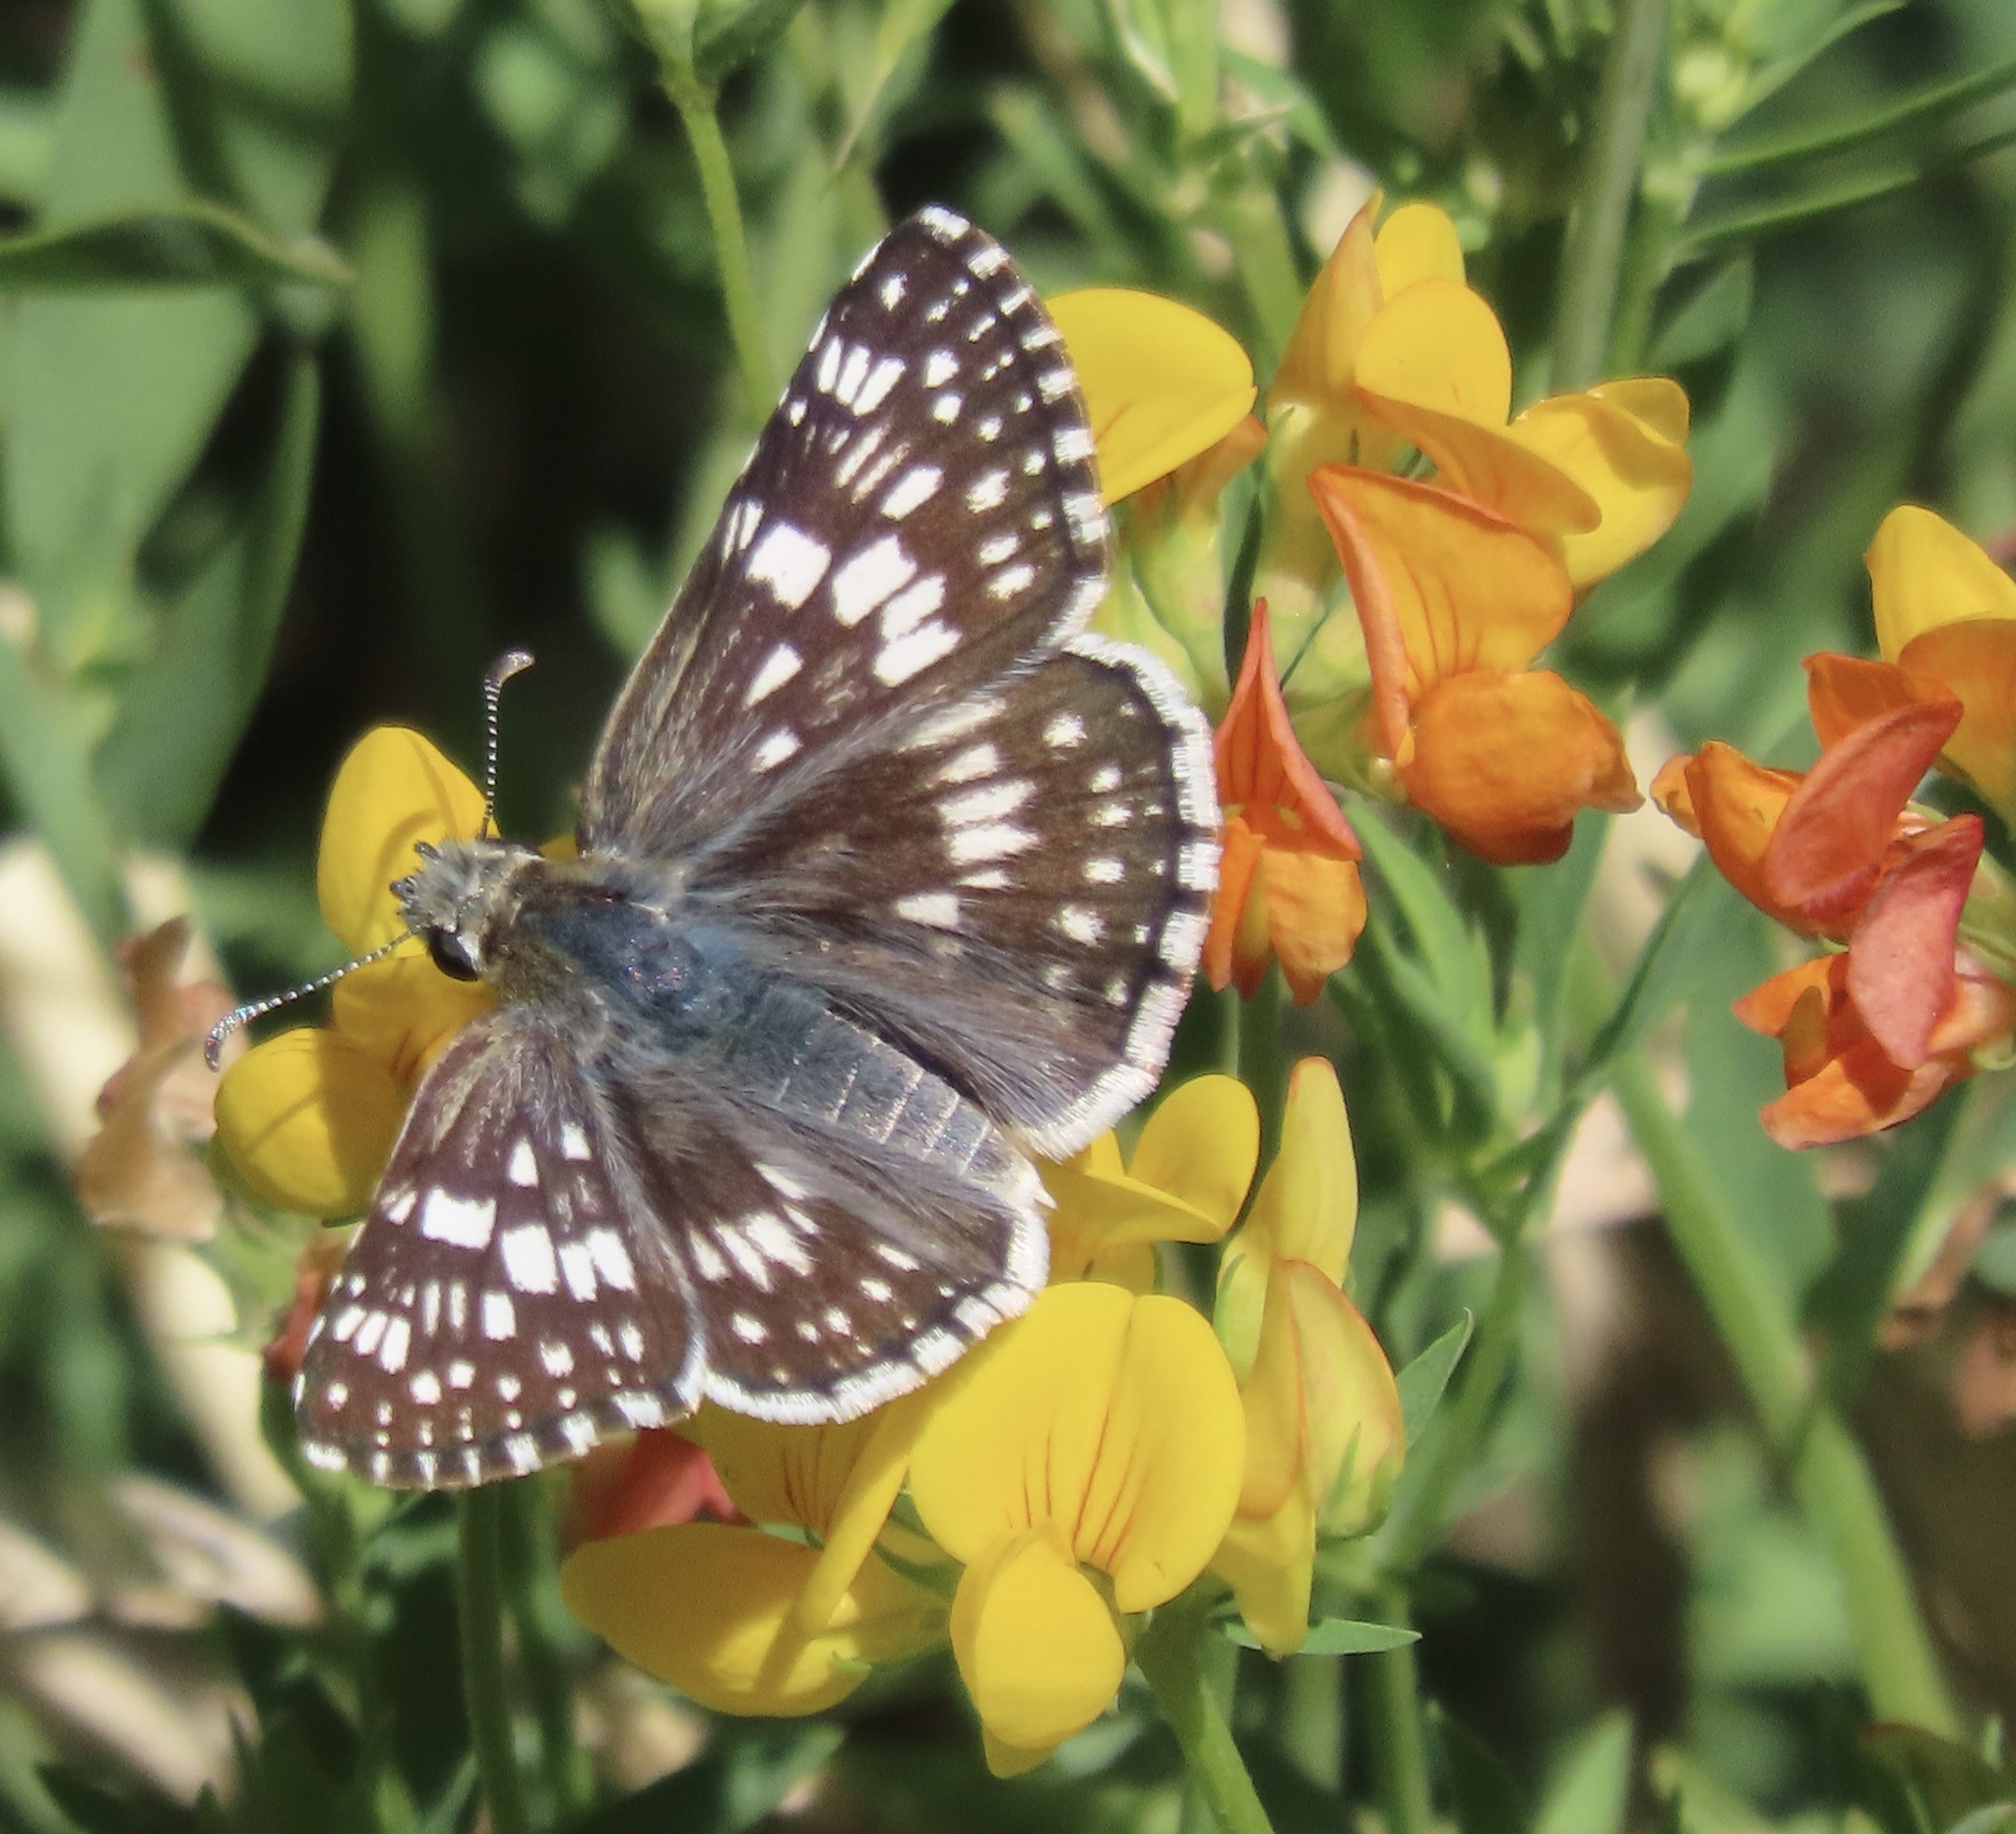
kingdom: Animalia
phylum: Arthropoda
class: Insecta
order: Lepidoptera
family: Hesperiidae
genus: Burnsius
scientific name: Burnsius communis
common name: Common checkered-skipper
